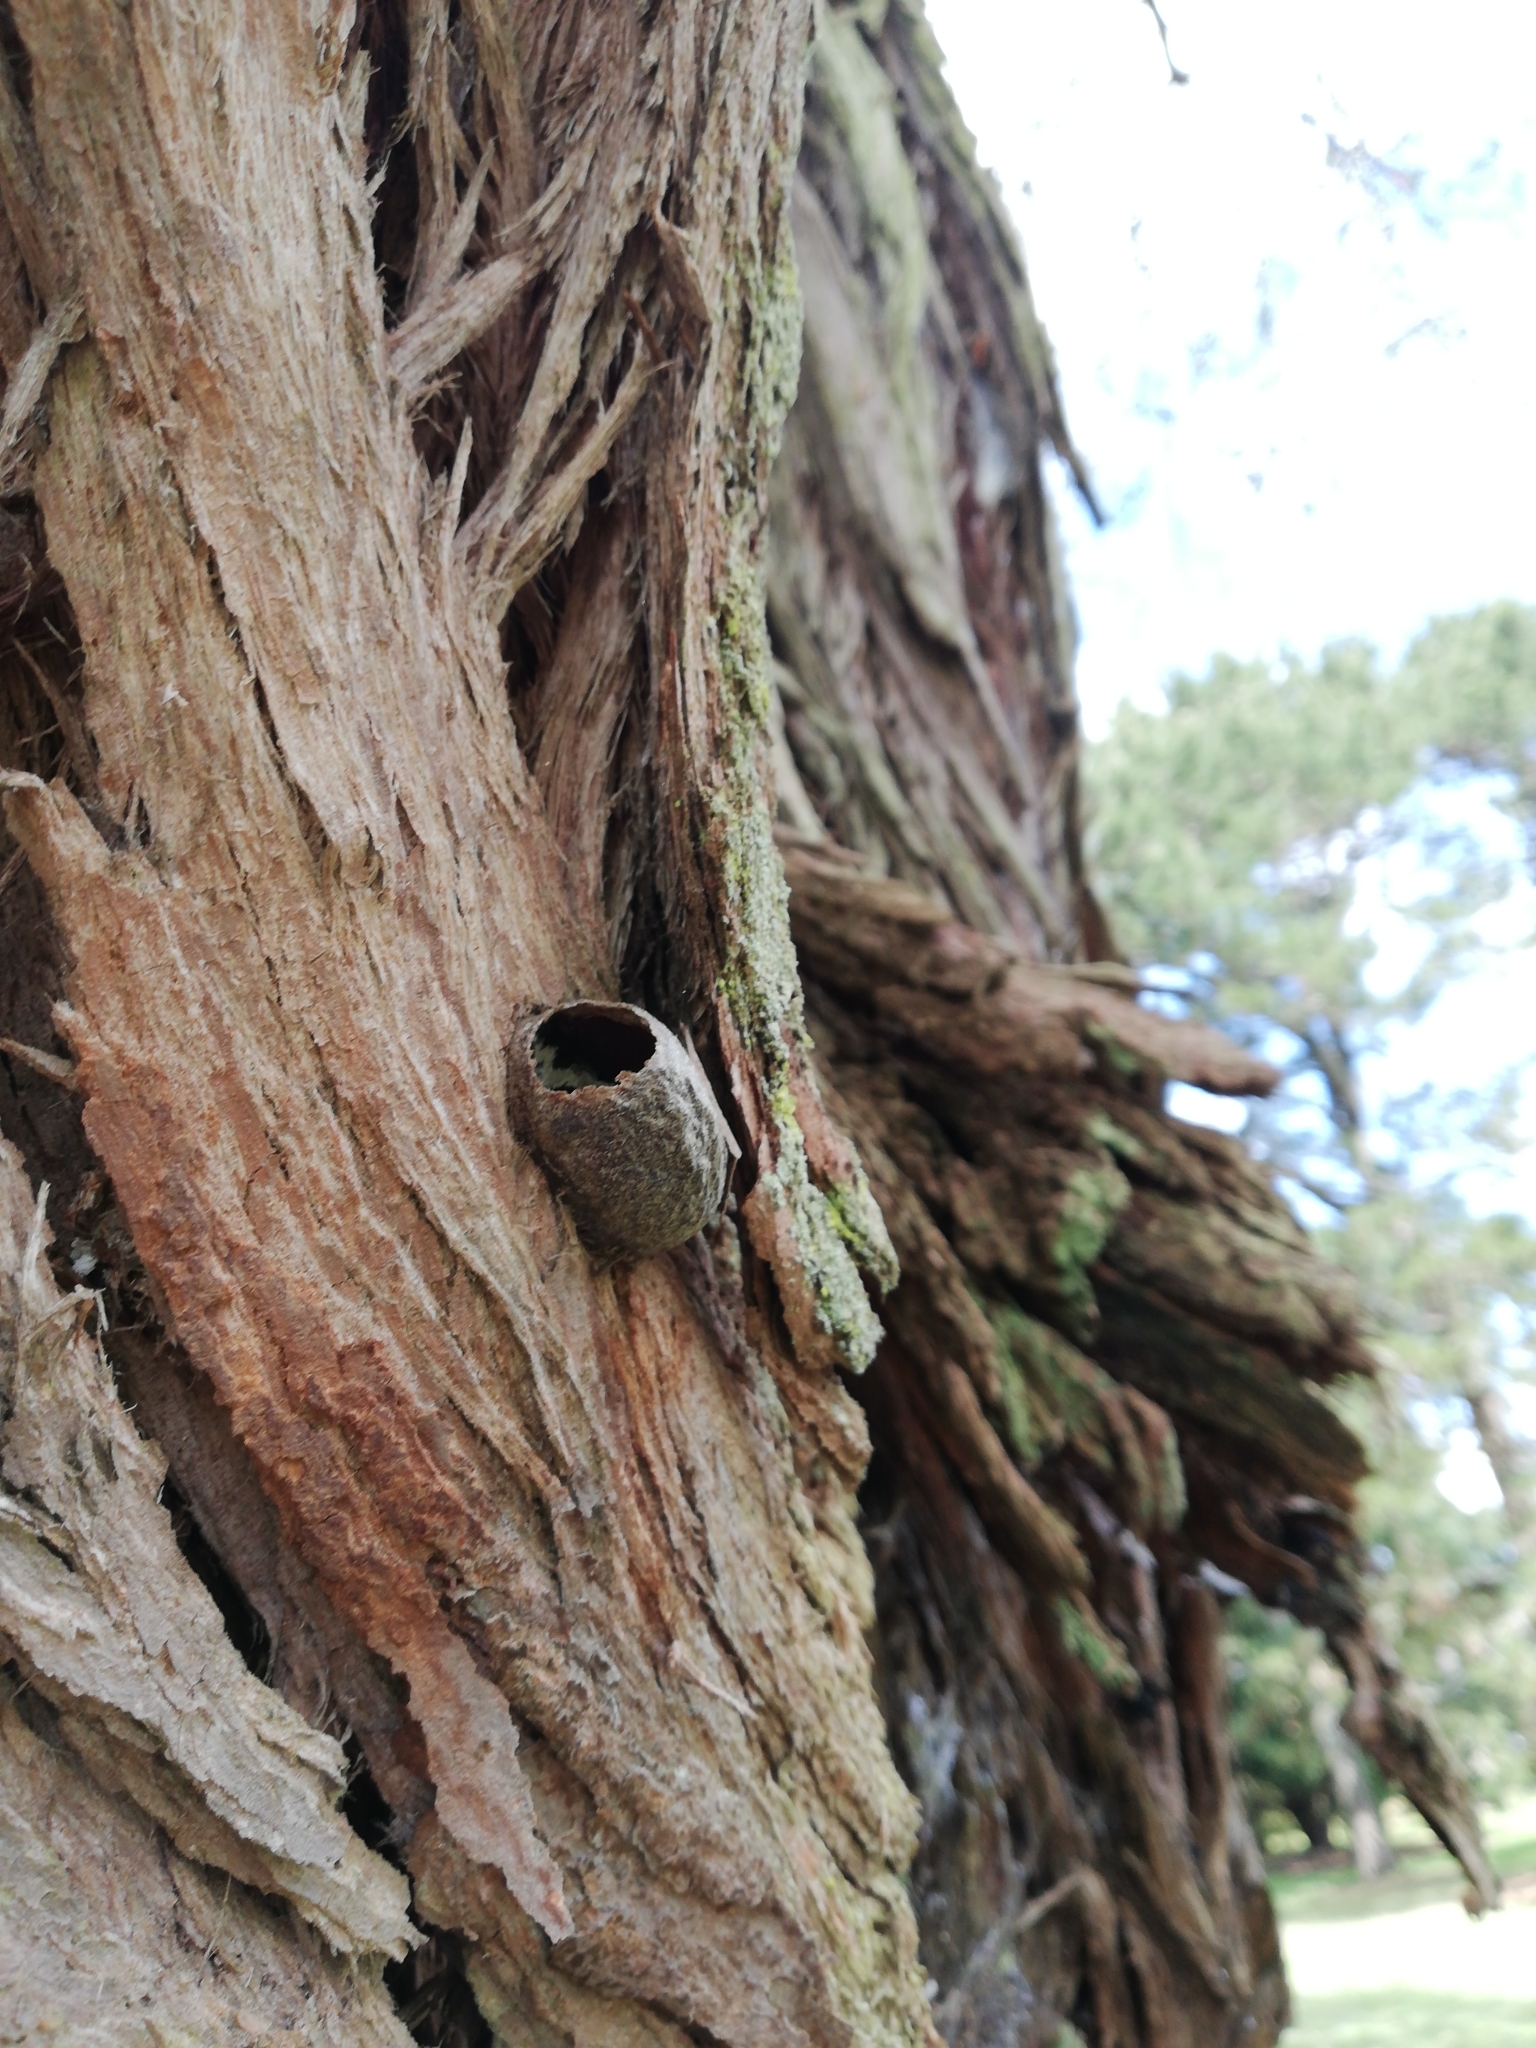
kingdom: Animalia
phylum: Arthropoda
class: Insecta
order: Lepidoptera
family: Saturniidae
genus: Opodiphthera
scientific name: Opodiphthera
